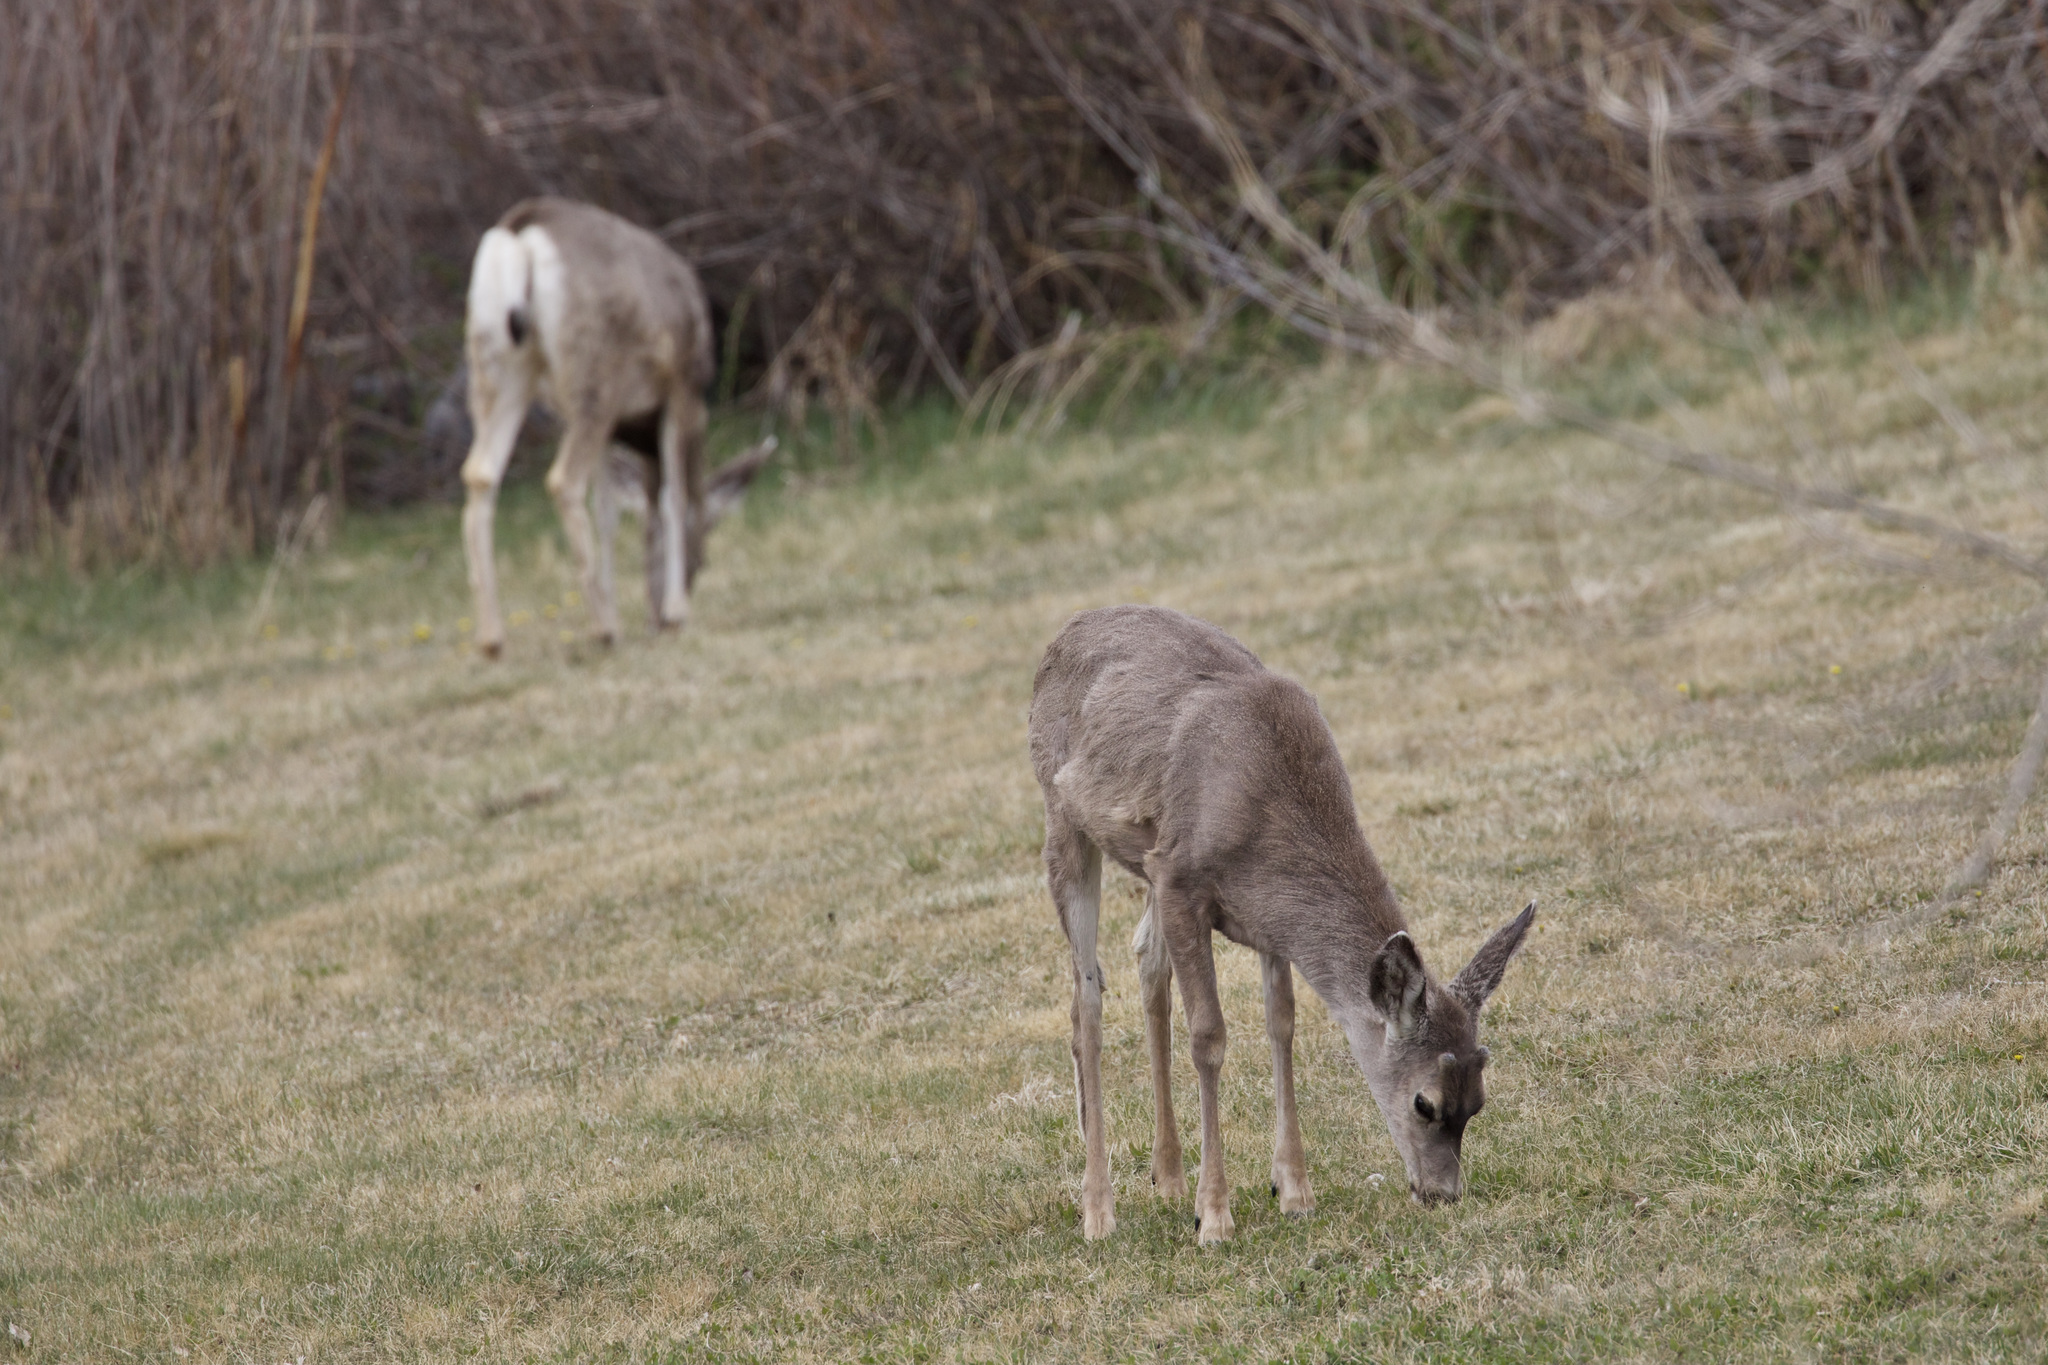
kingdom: Animalia
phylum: Chordata
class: Mammalia
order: Artiodactyla
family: Cervidae
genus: Odocoileus
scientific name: Odocoileus hemionus
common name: Mule deer
